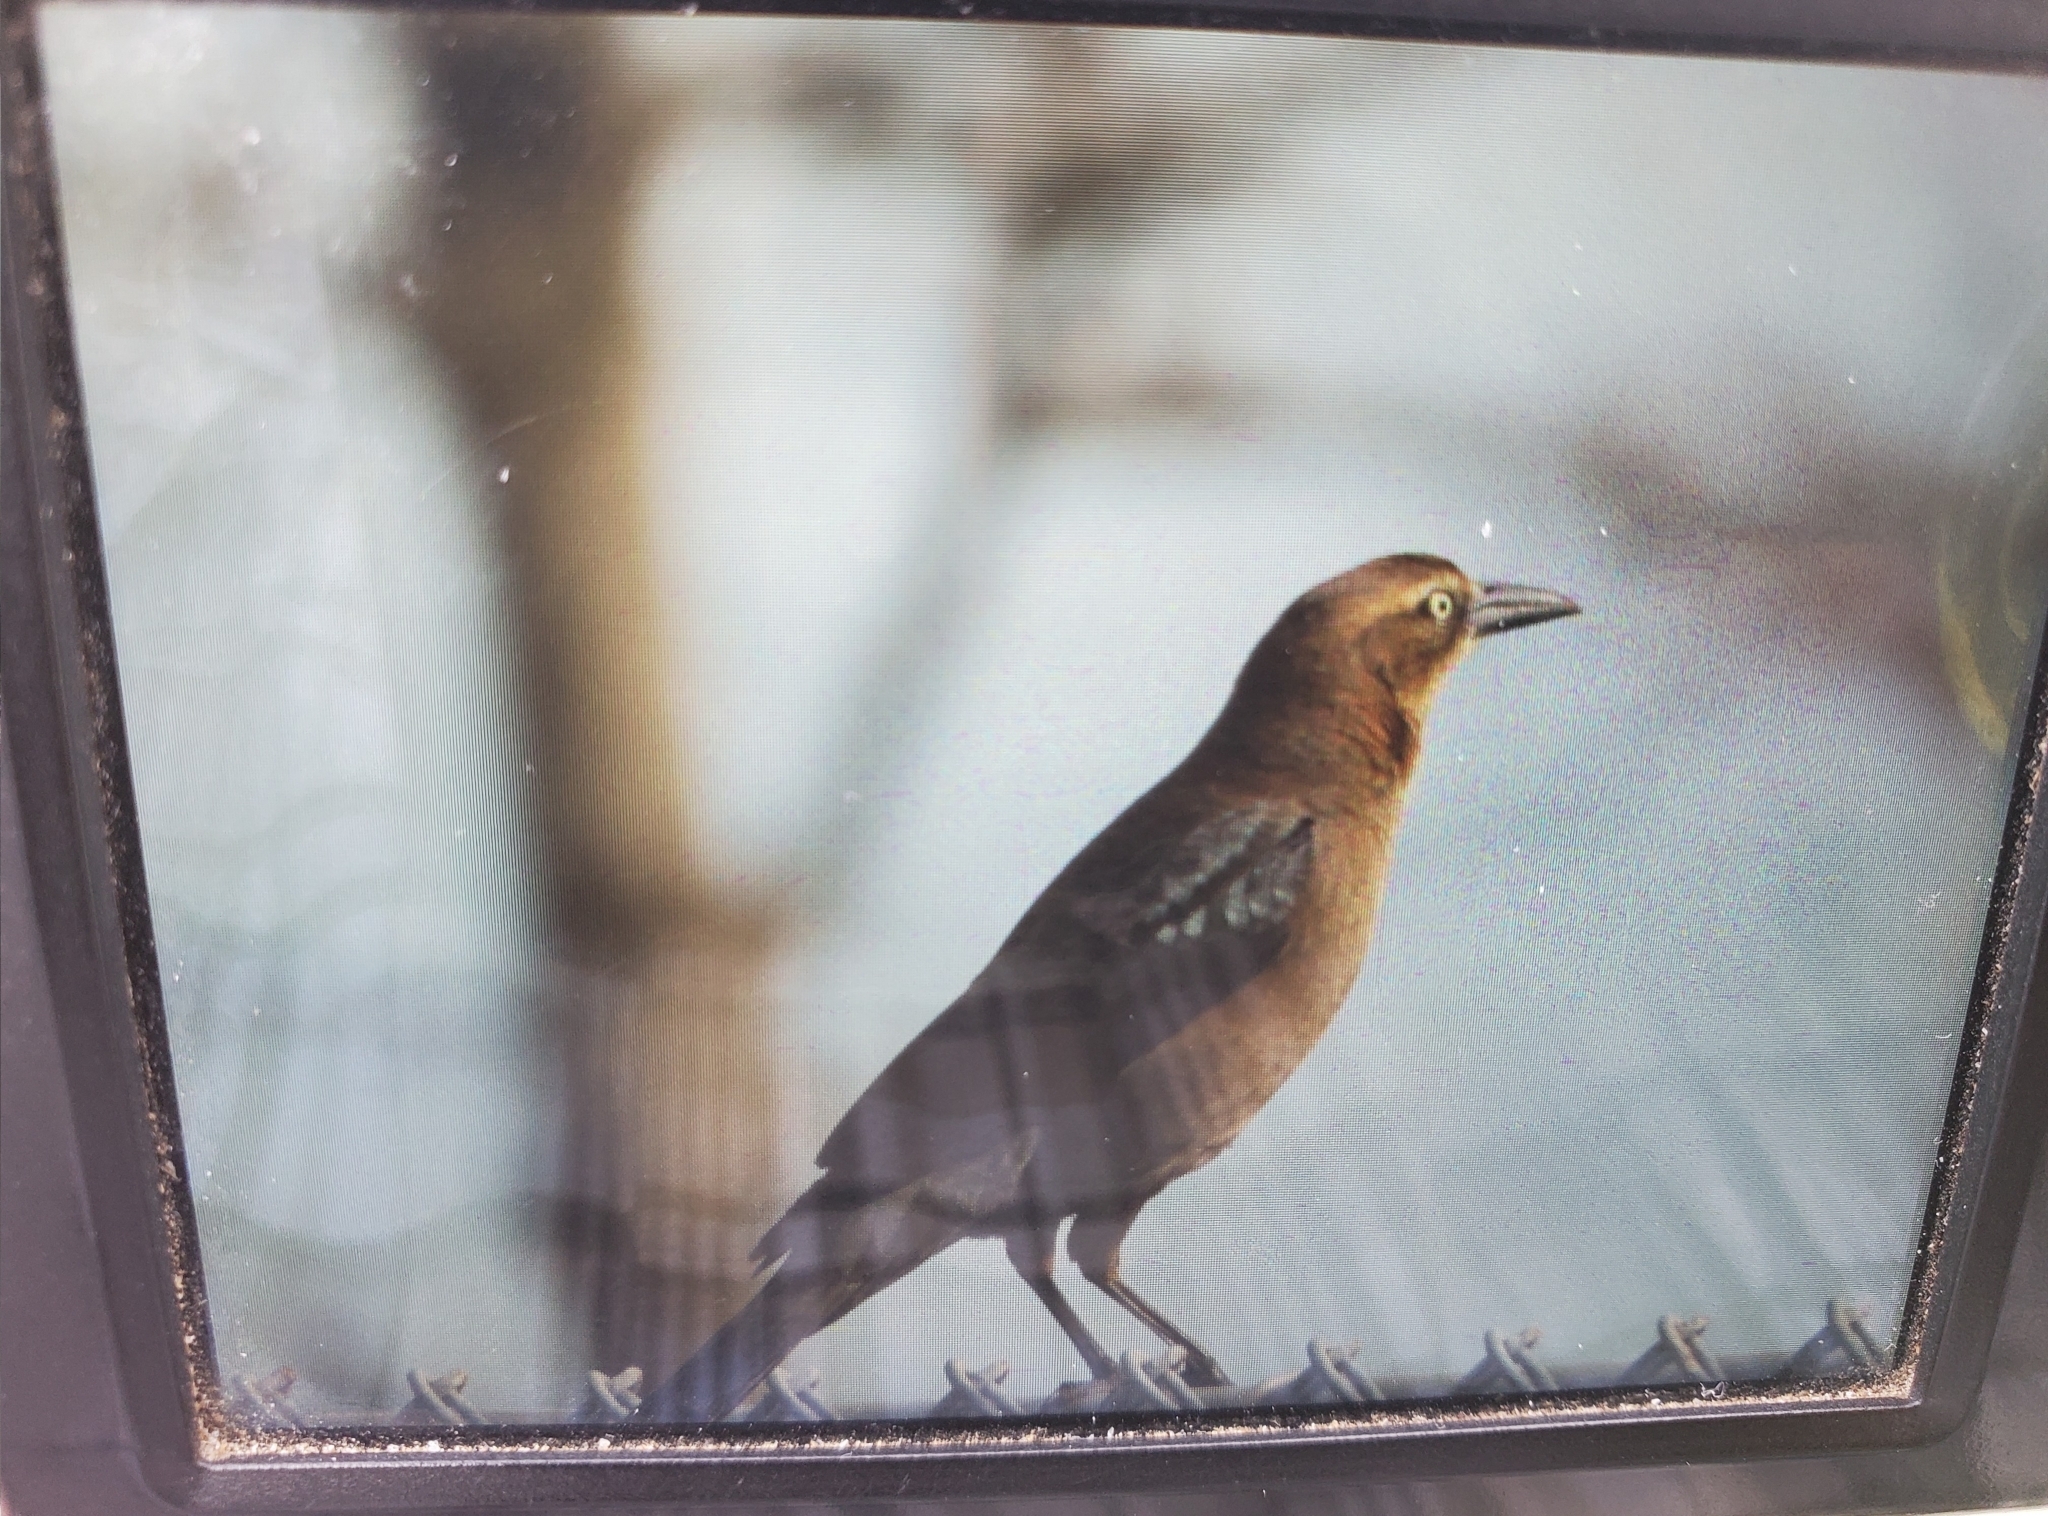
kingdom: Animalia
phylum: Chordata
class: Aves
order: Passeriformes
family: Icteridae
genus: Quiscalus
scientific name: Quiscalus mexicanus
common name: Great-tailed grackle
